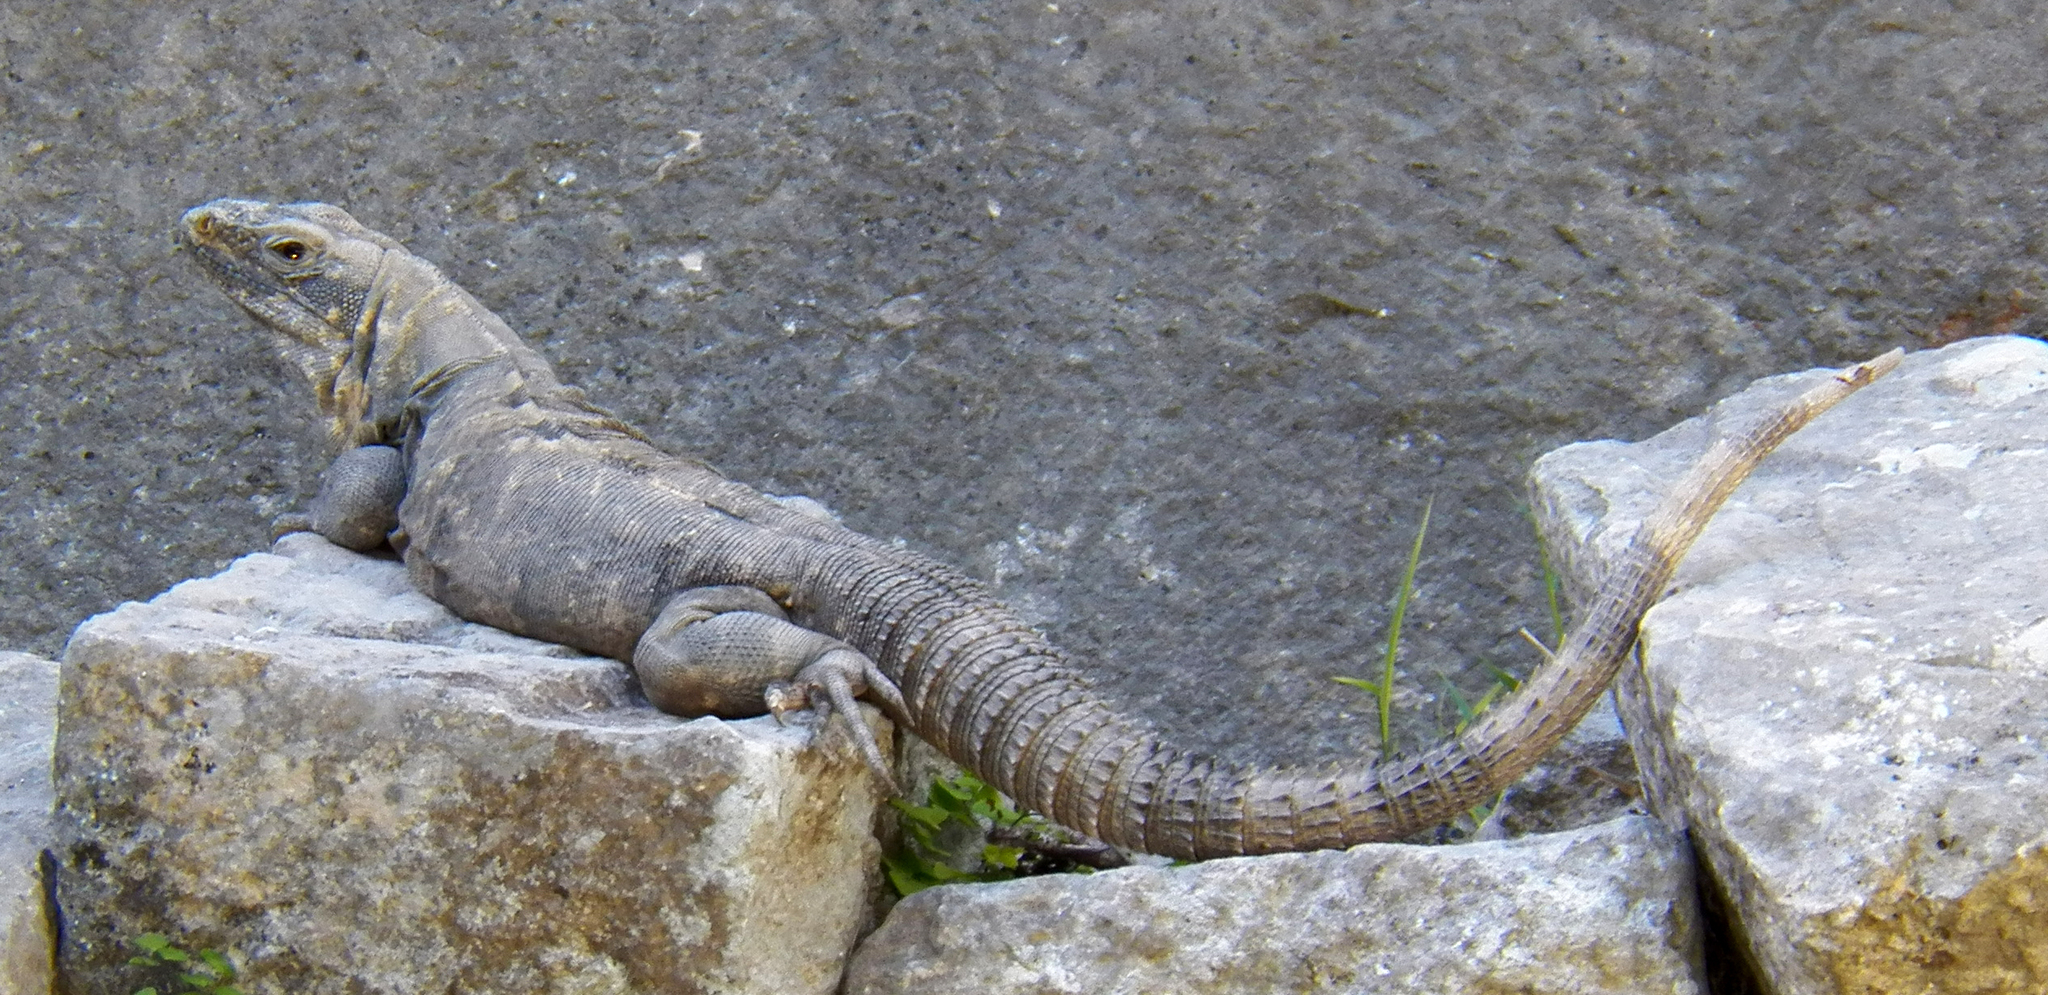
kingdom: Animalia
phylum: Chordata
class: Squamata
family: Iguanidae
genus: Ctenosaura
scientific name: Ctenosaura similis
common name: Black spiny-tailed iguana
